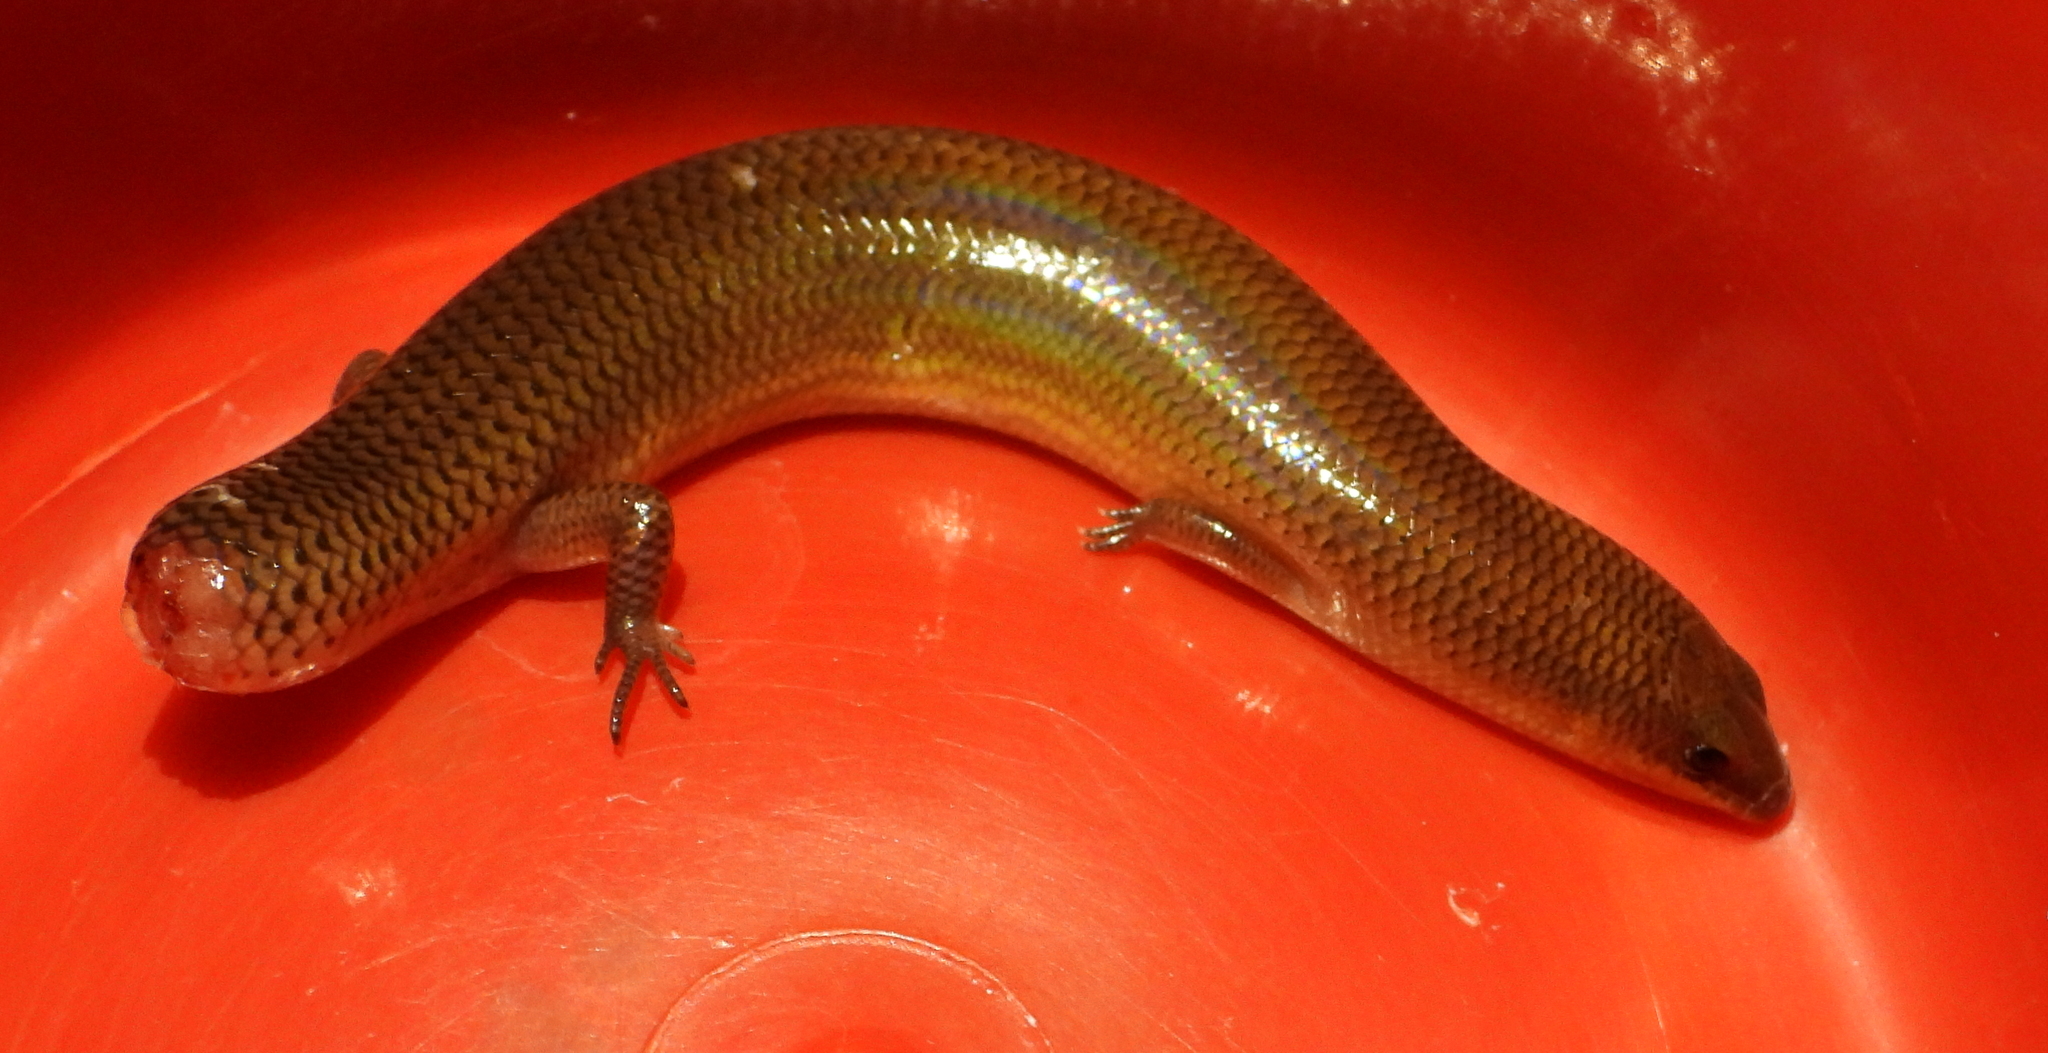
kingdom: Animalia
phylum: Chordata
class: Squamata
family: Scincidae
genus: Mochlus
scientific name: Mochlus sundevallii
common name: Peters' eyelid skink
